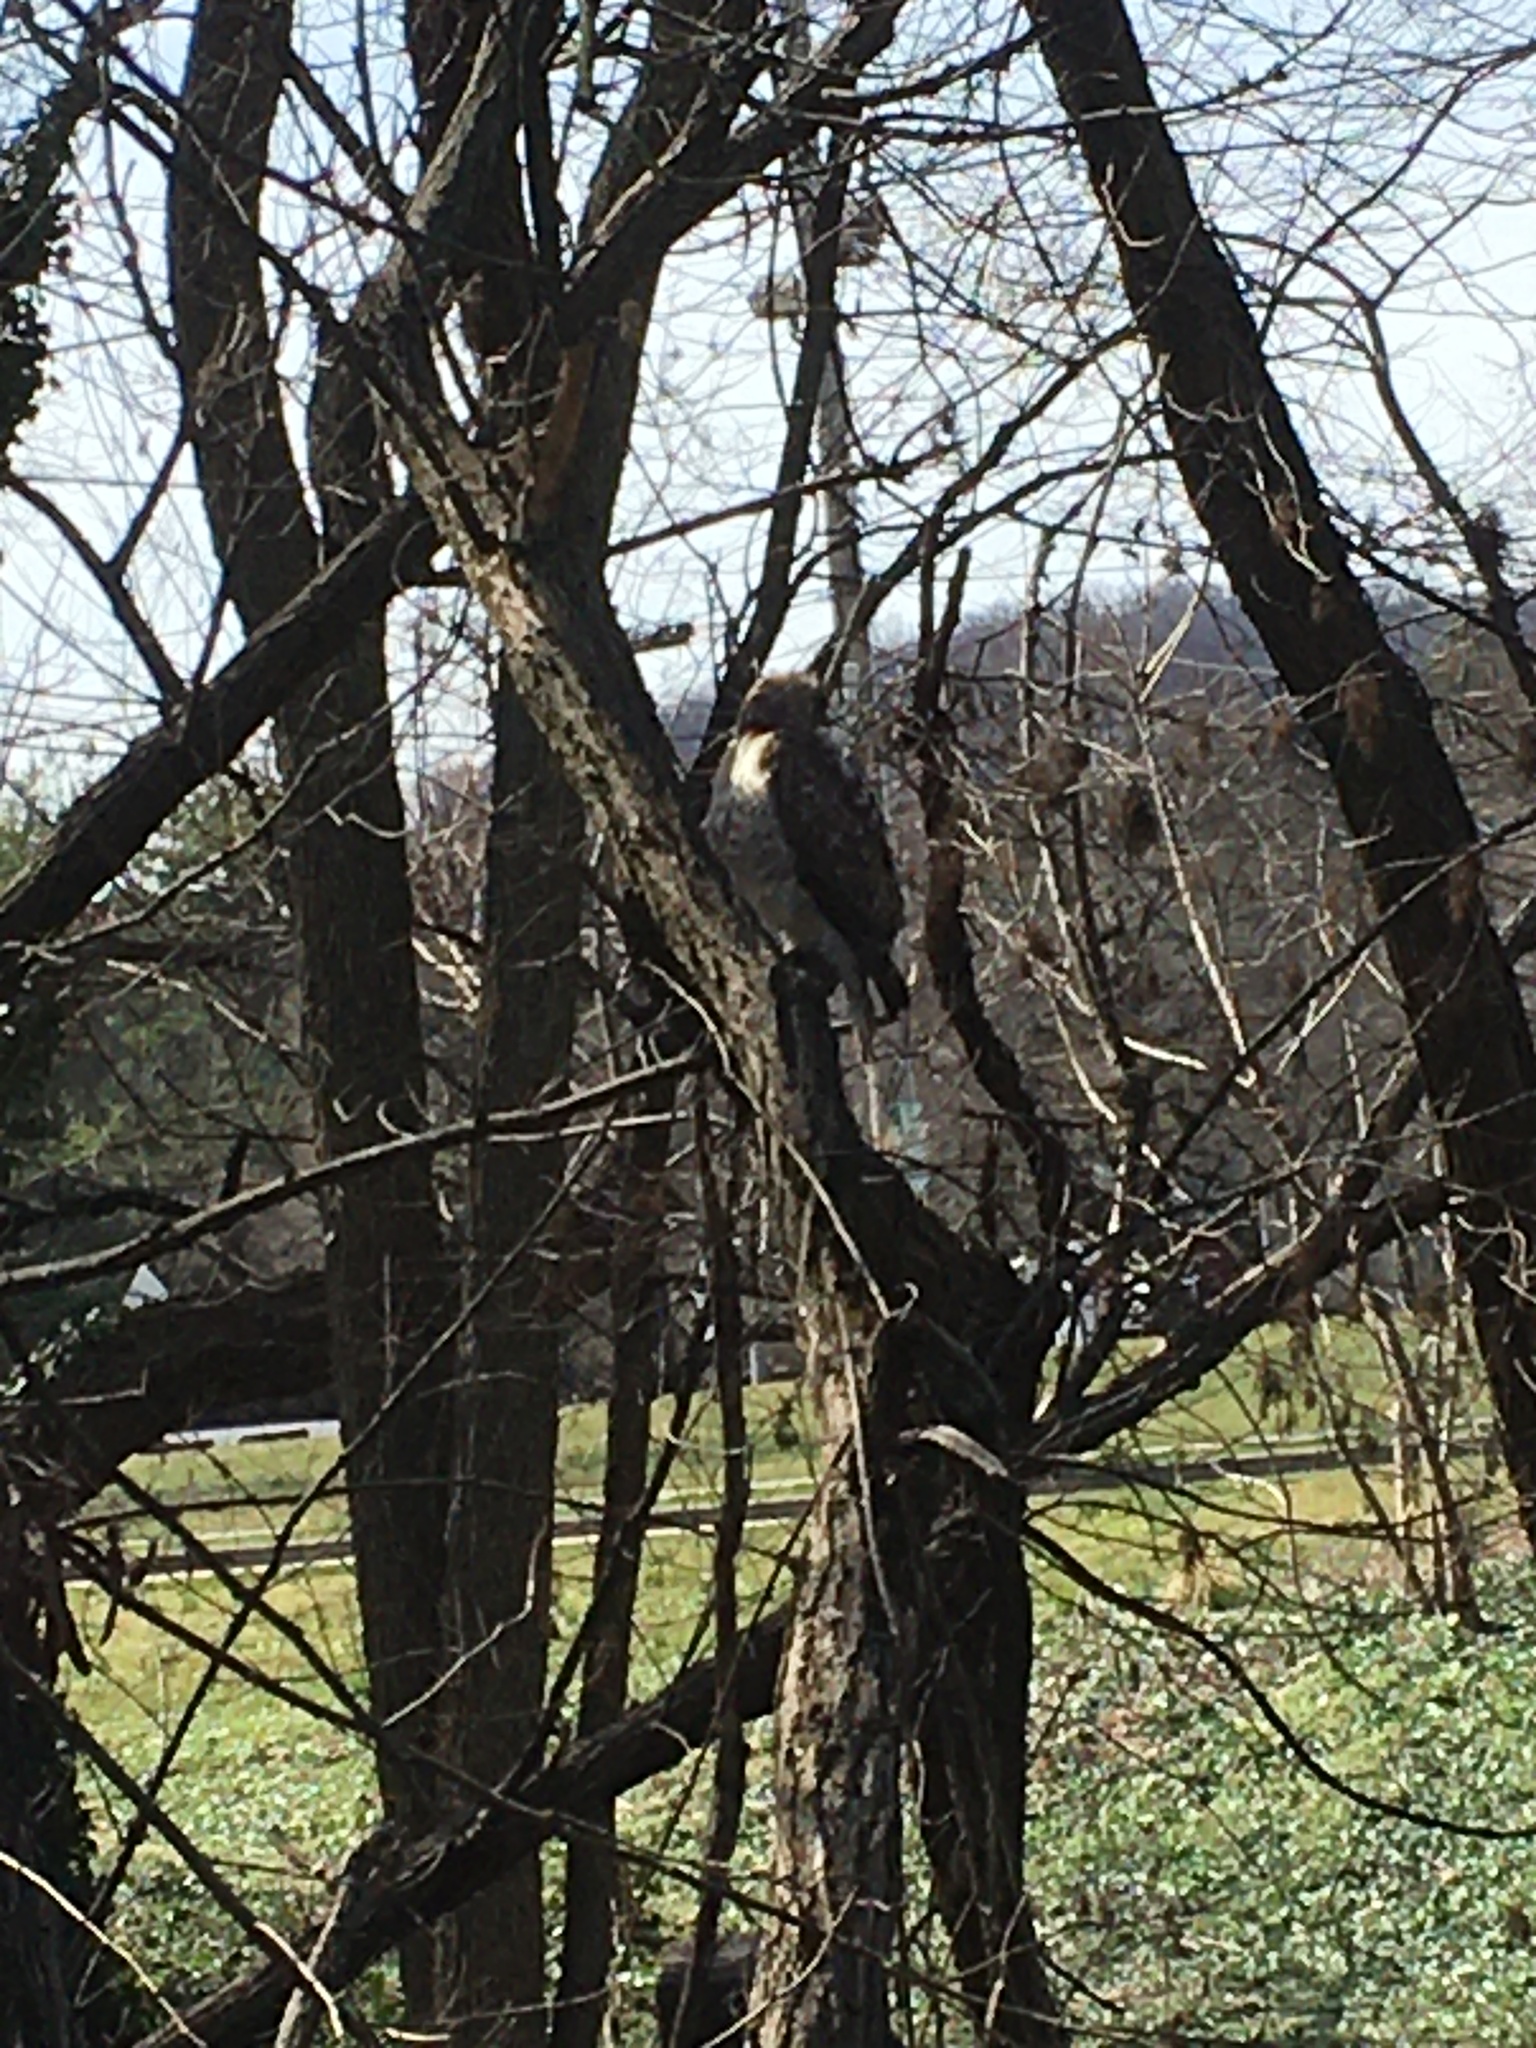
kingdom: Animalia
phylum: Chordata
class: Aves
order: Accipitriformes
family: Accipitridae
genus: Buteo
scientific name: Buteo jamaicensis
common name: Red-tailed hawk
